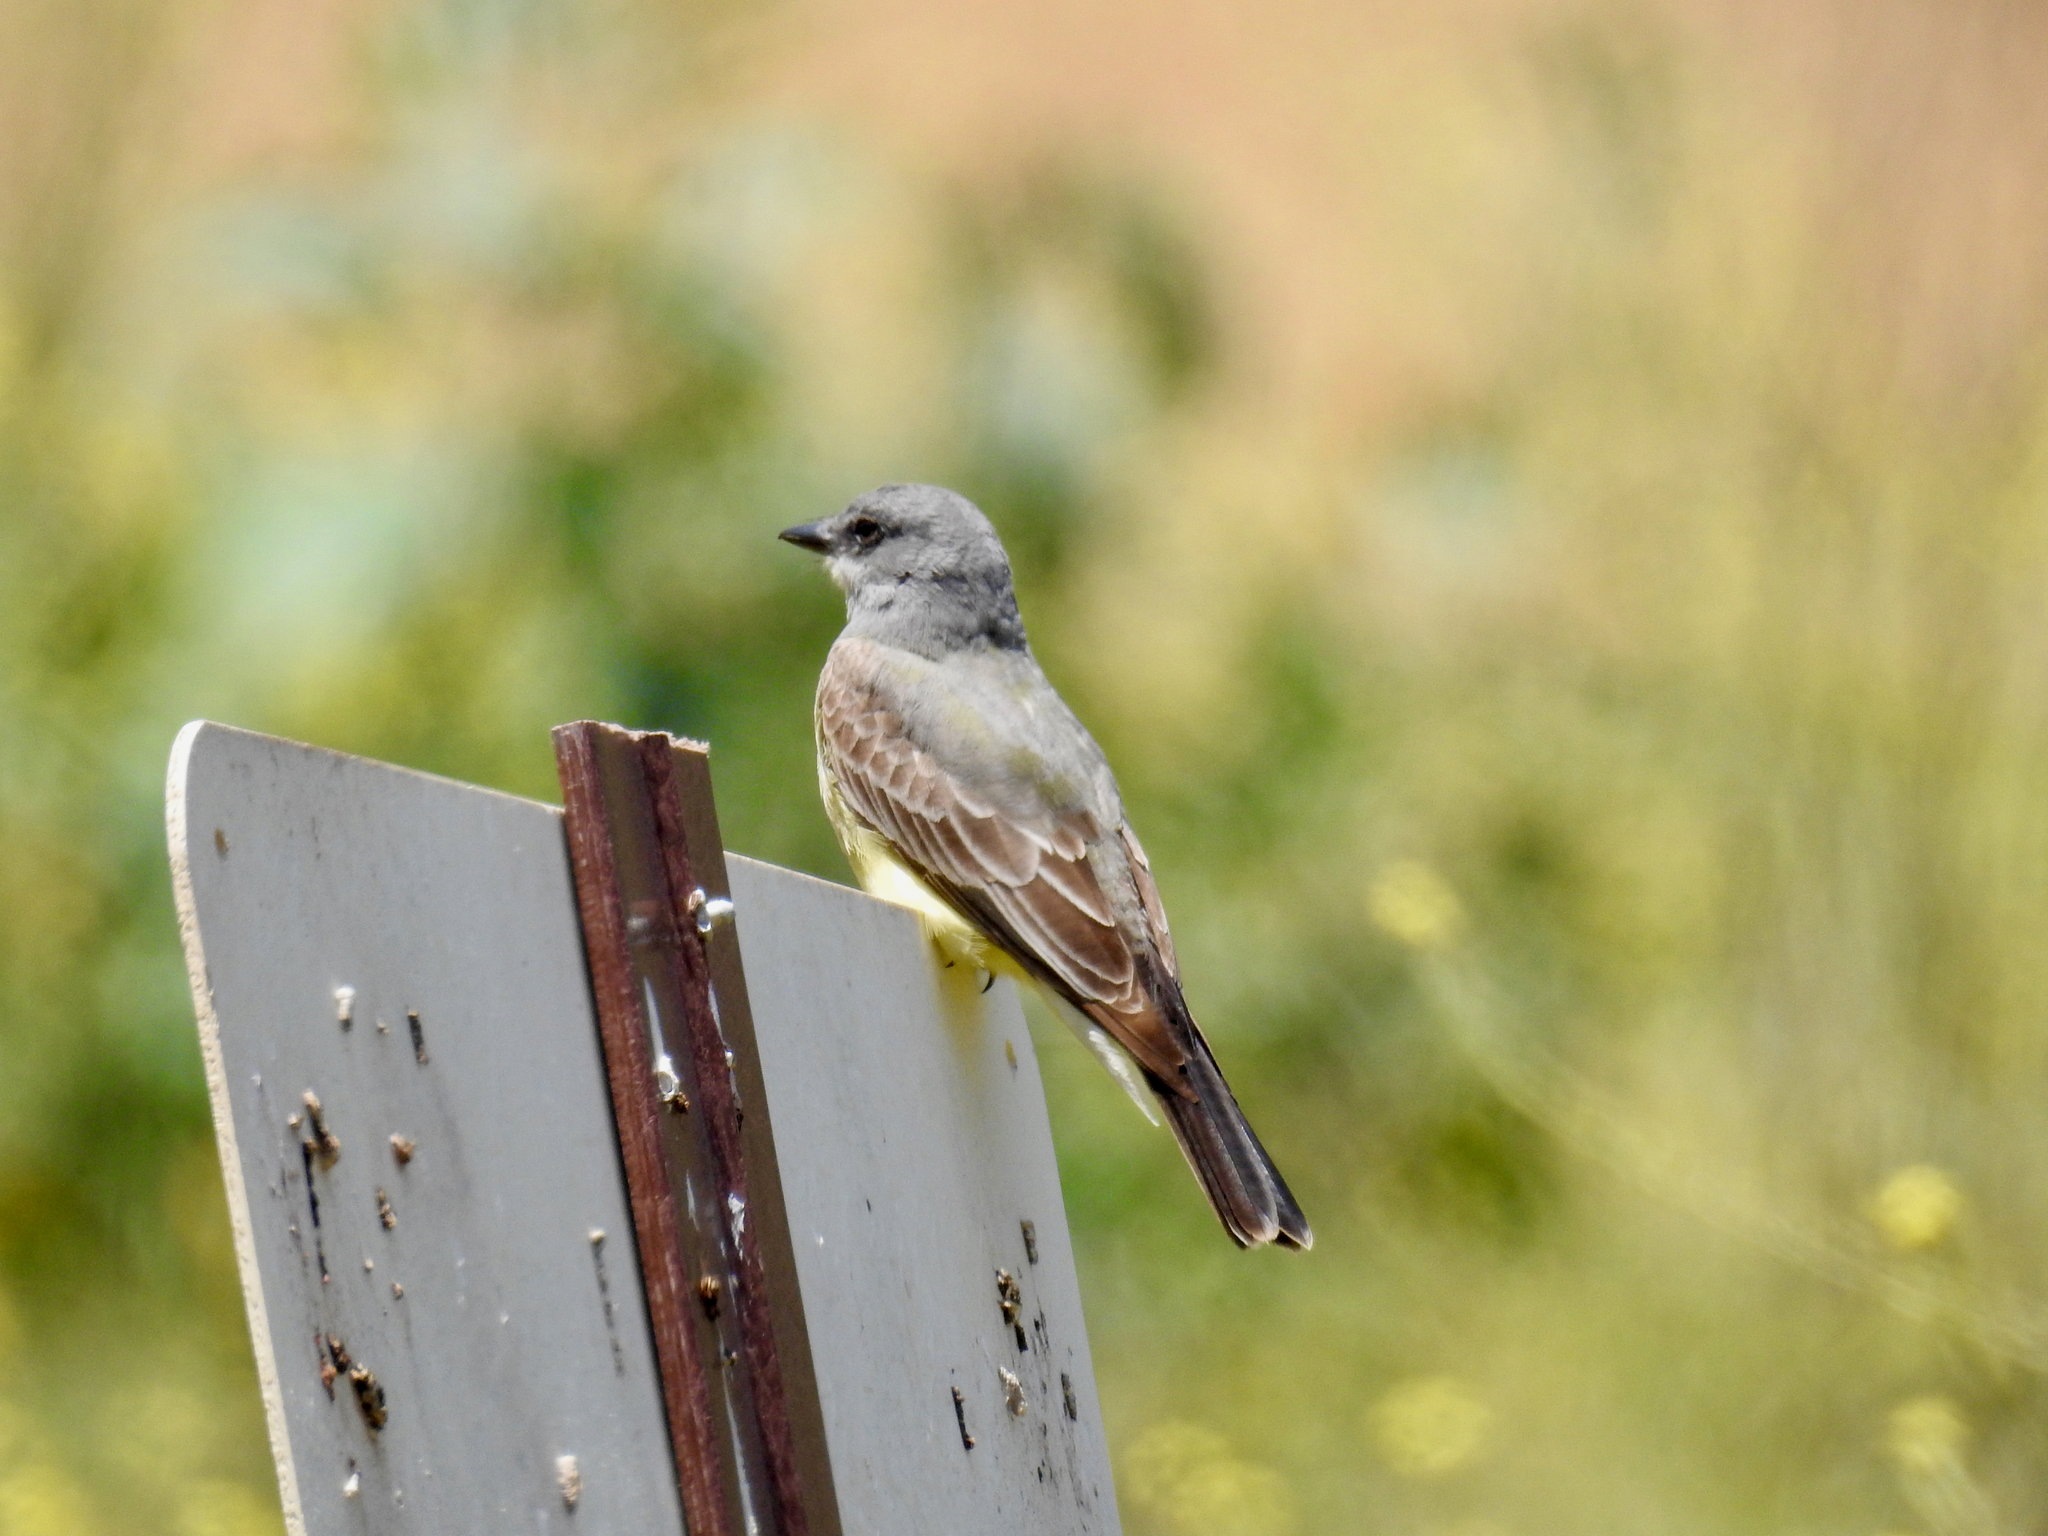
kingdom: Animalia
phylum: Chordata
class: Aves
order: Passeriformes
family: Tyrannidae
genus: Tyrannus
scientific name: Tyrannus vociferans
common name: Cassin's kingbird
